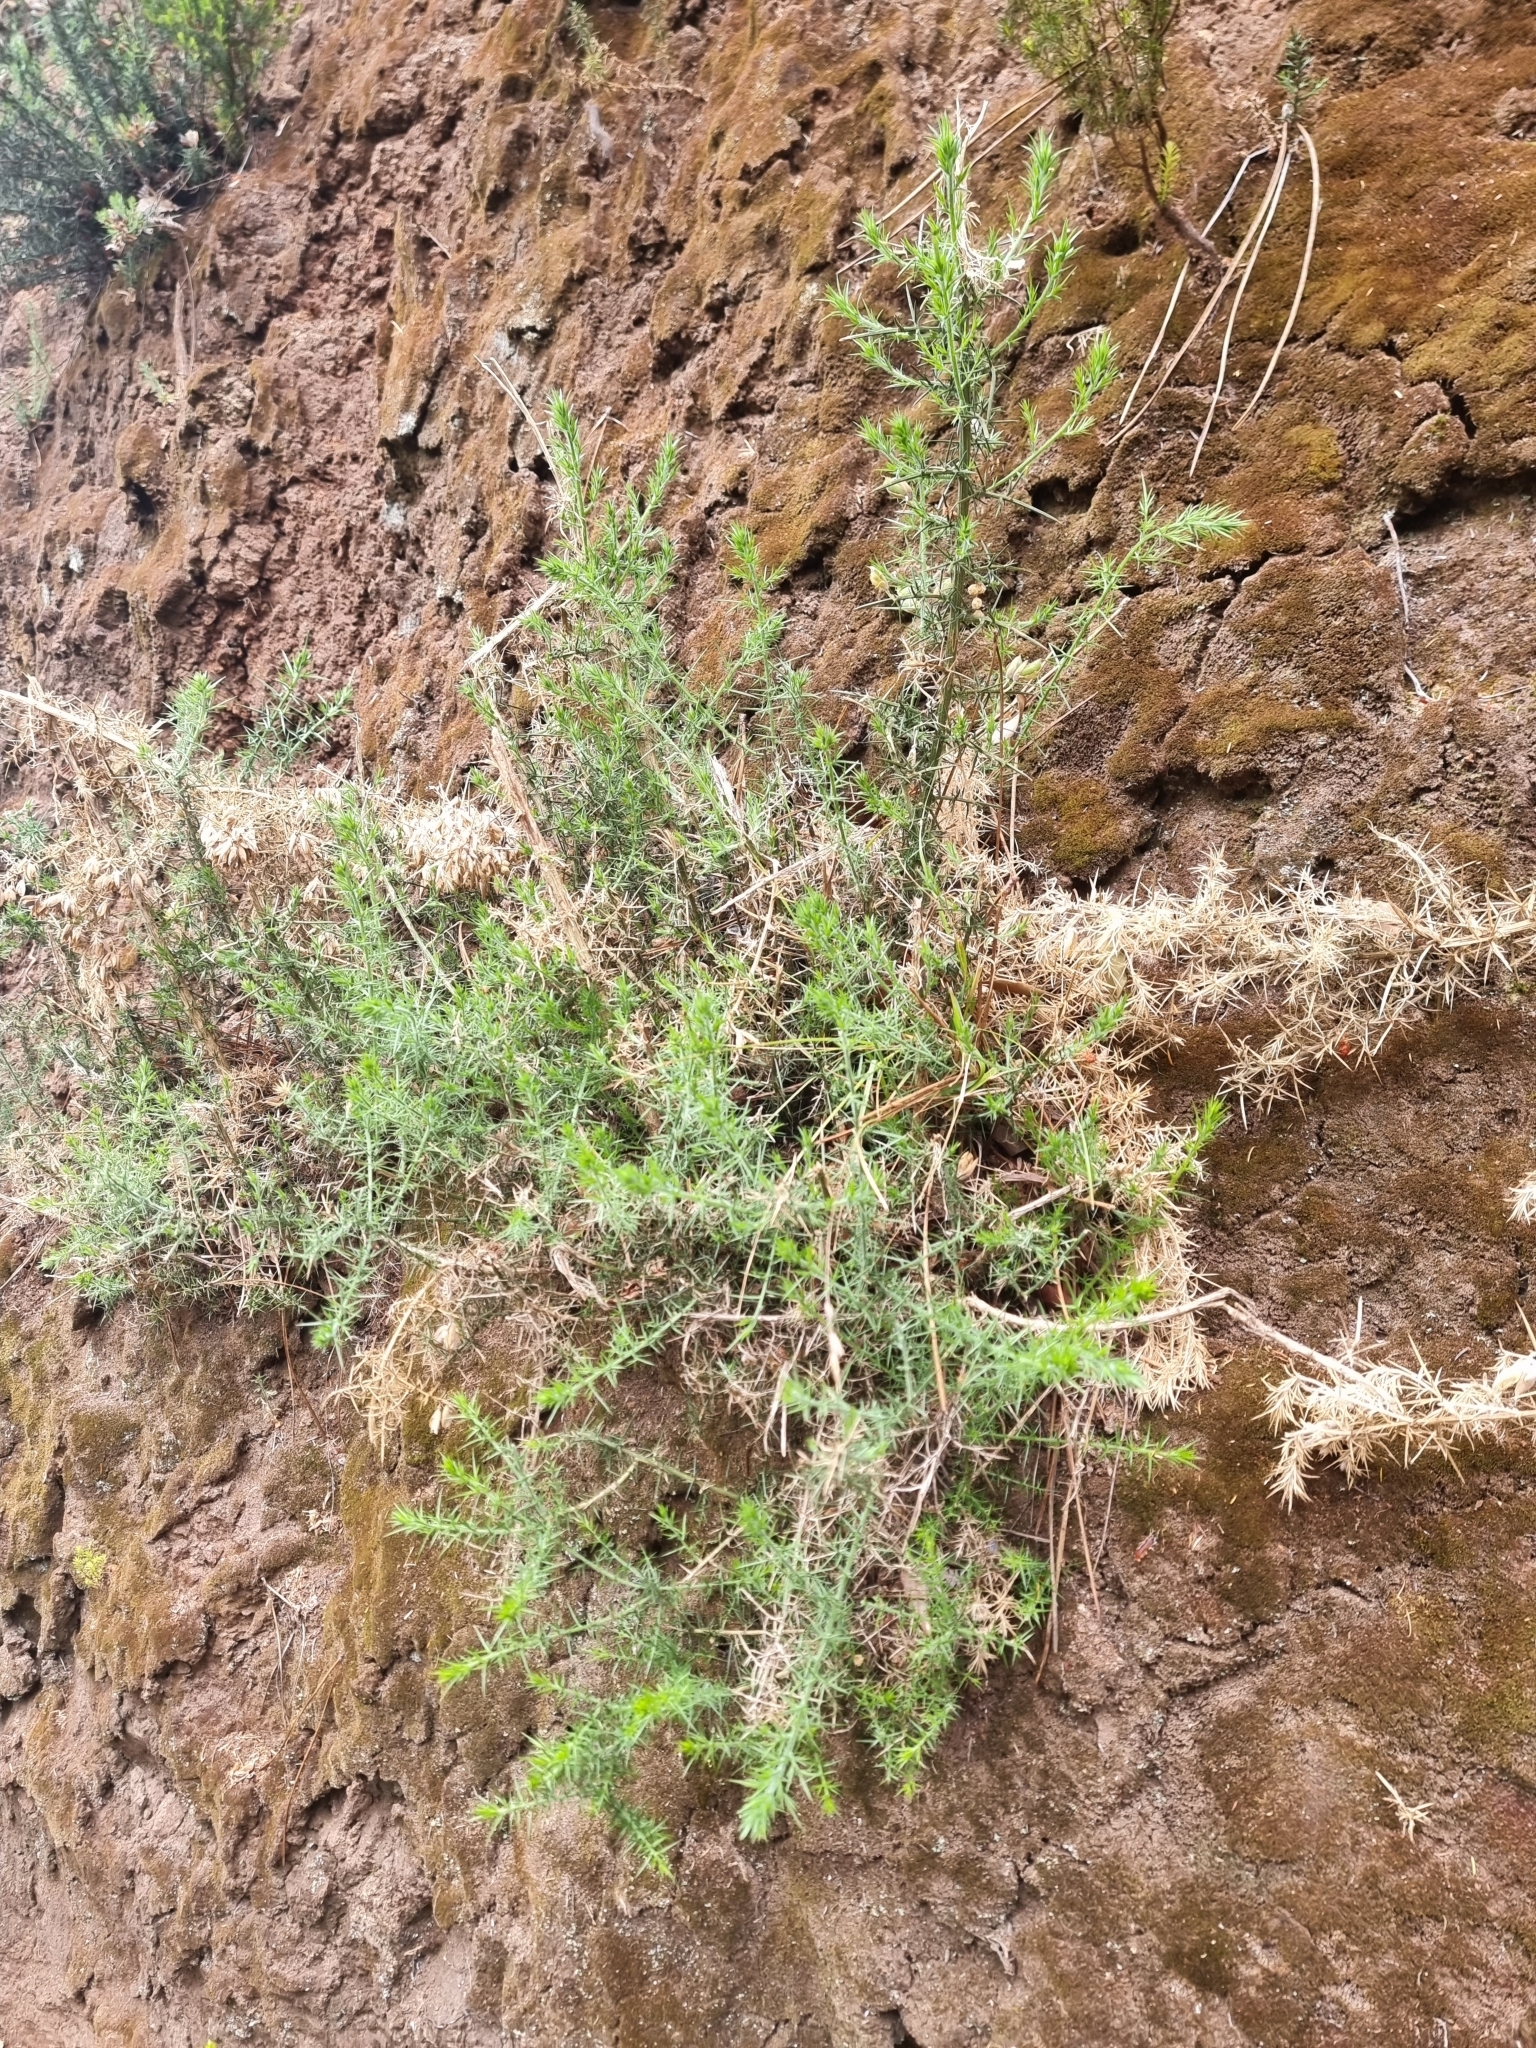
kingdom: Plantae
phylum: Tracheophyta
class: Magnoliopsida
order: Fabales
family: Fabaceae
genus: Ulex
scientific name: Ulex europaeus
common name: Common gorse
